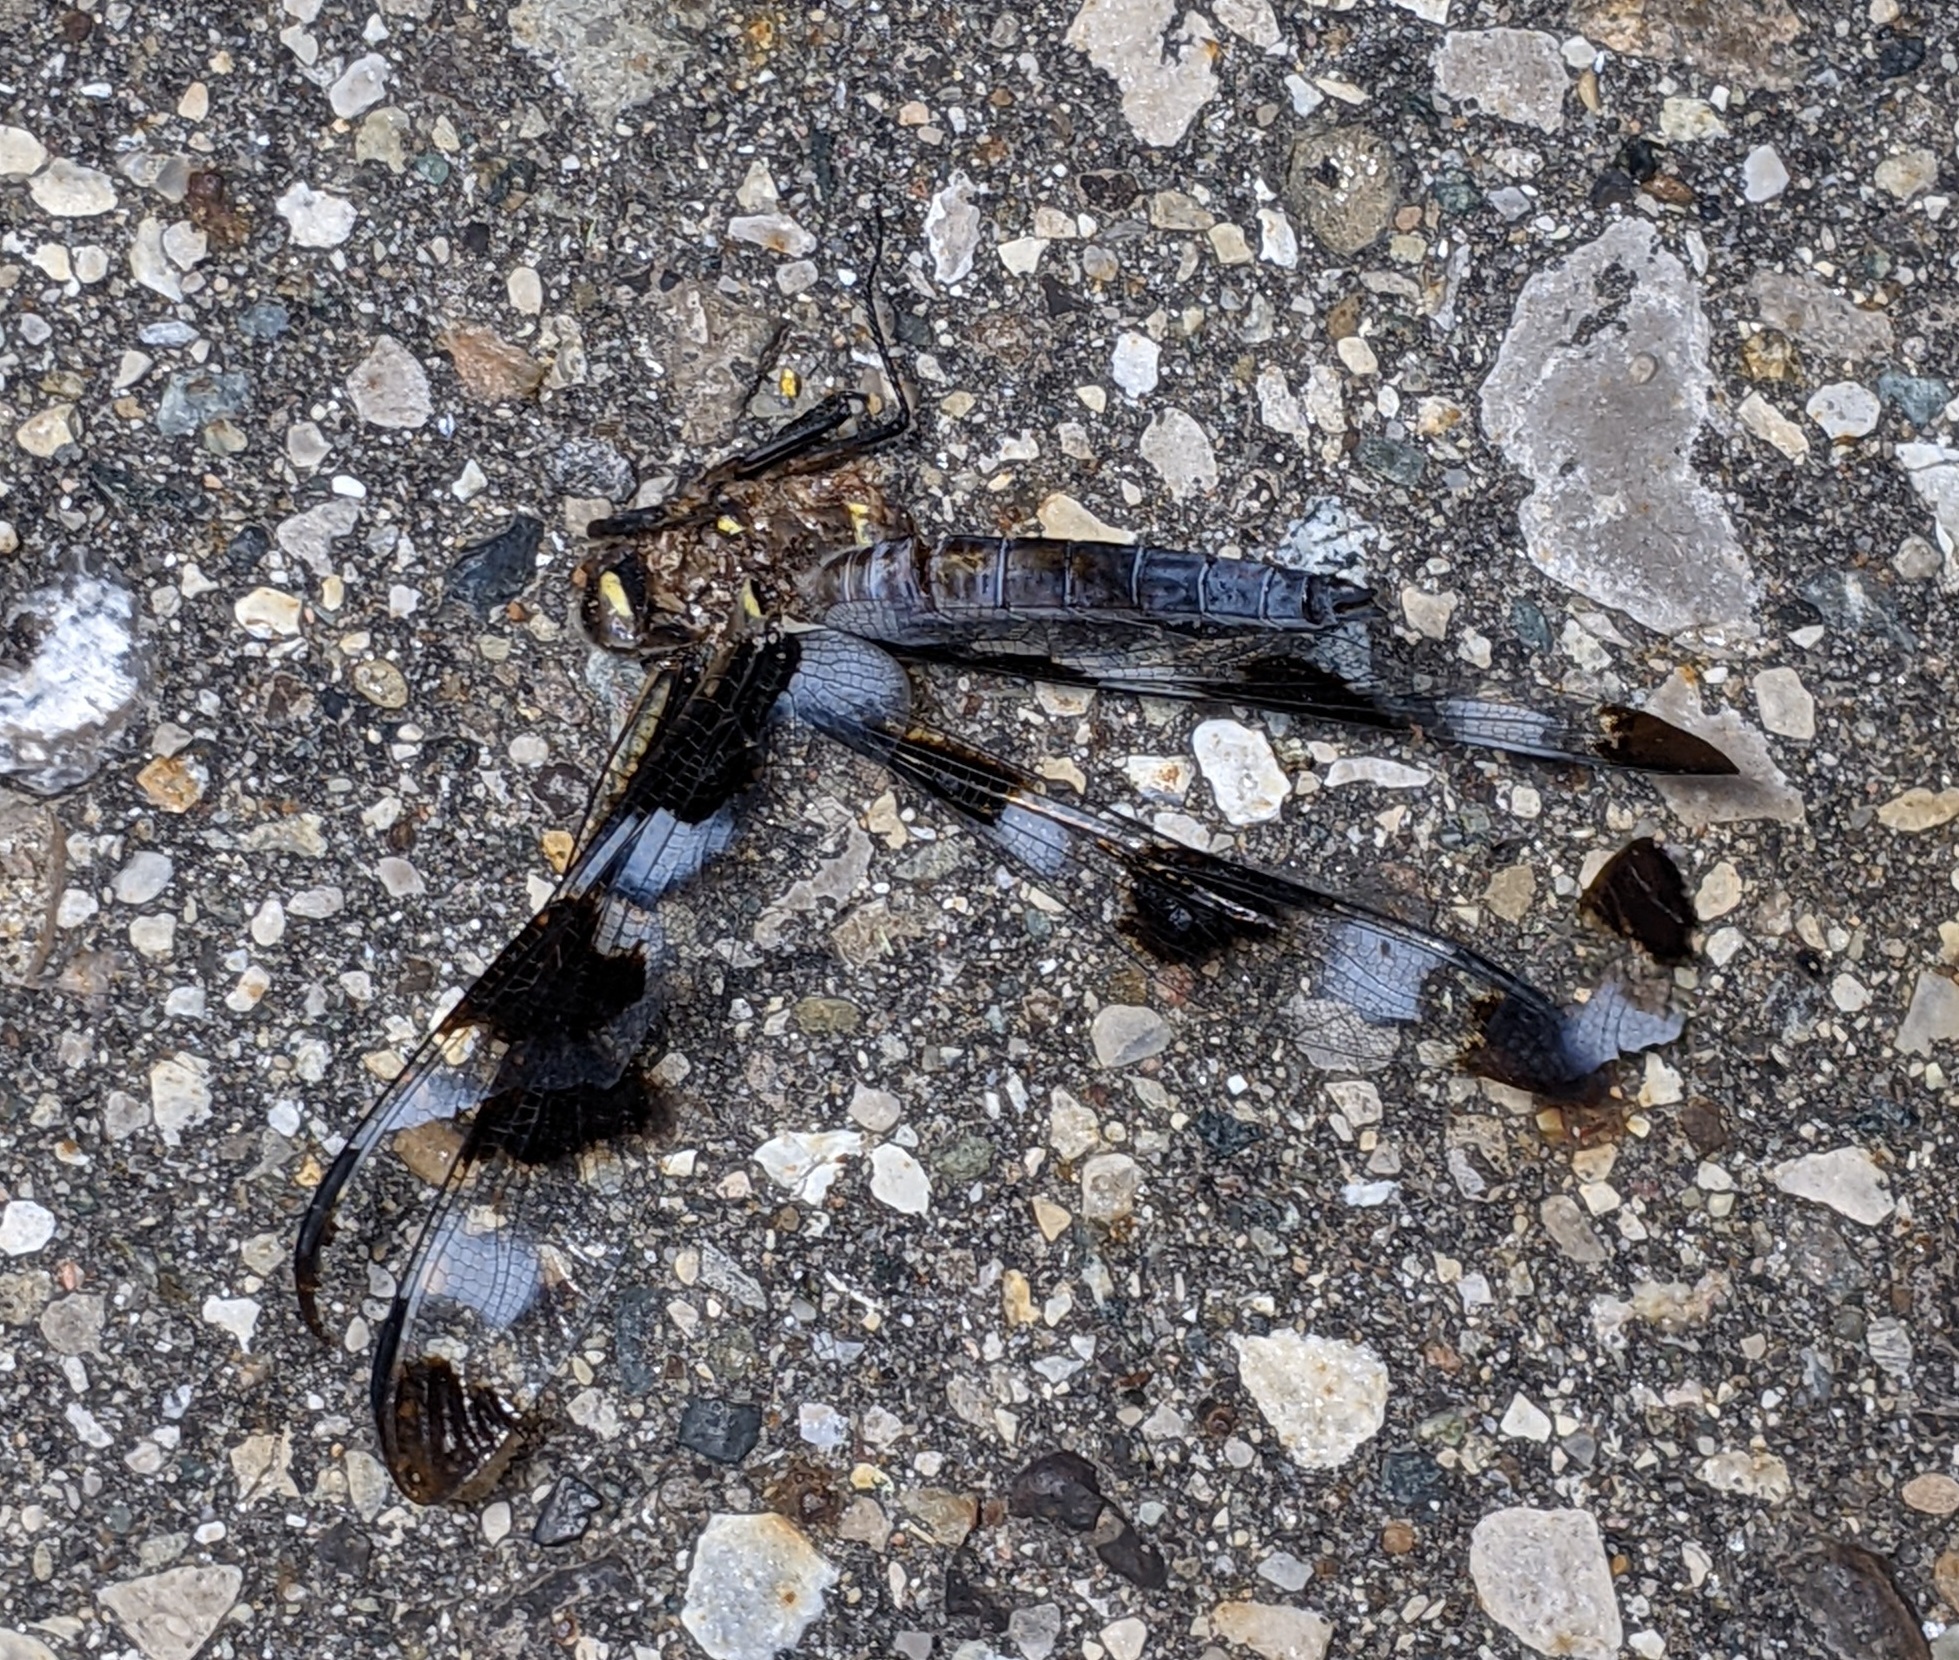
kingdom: Animalia
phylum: Arthropoda
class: Insecta
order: Odonata
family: Libellulidae
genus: Libellula
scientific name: Libellula pulchella
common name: Twelve-spotted skimmer
